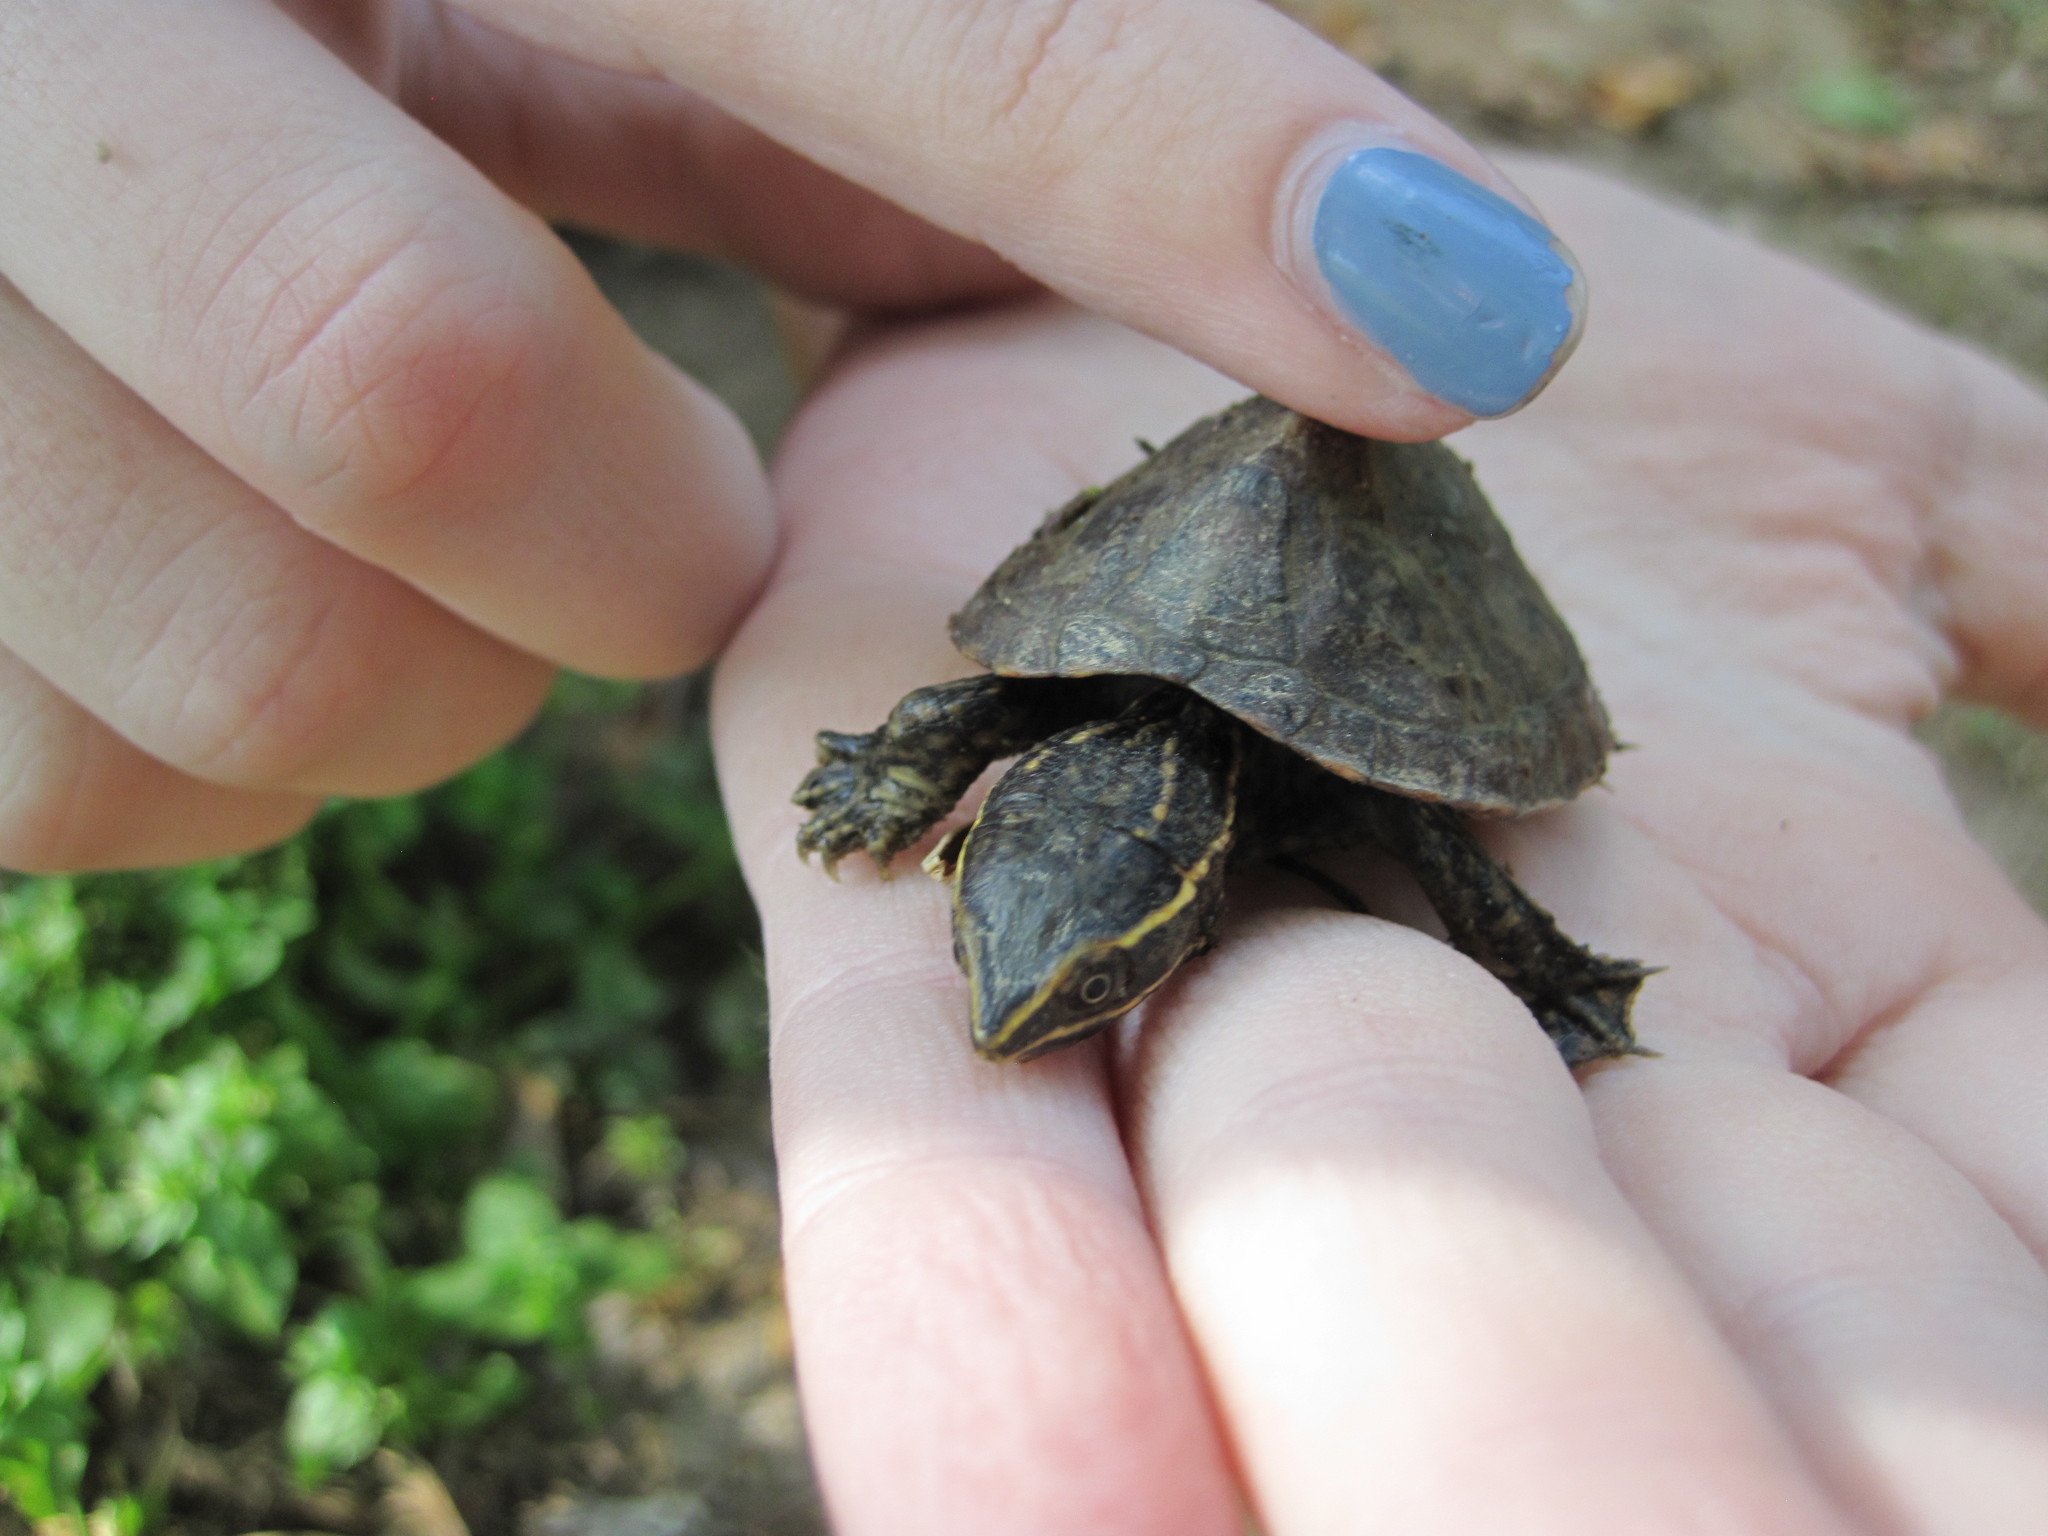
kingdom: Animalia
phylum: Chordata
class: Testudines
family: Kinosternidae
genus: Sternotherus
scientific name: Sternotherus odoratus
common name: Common musk turtle
